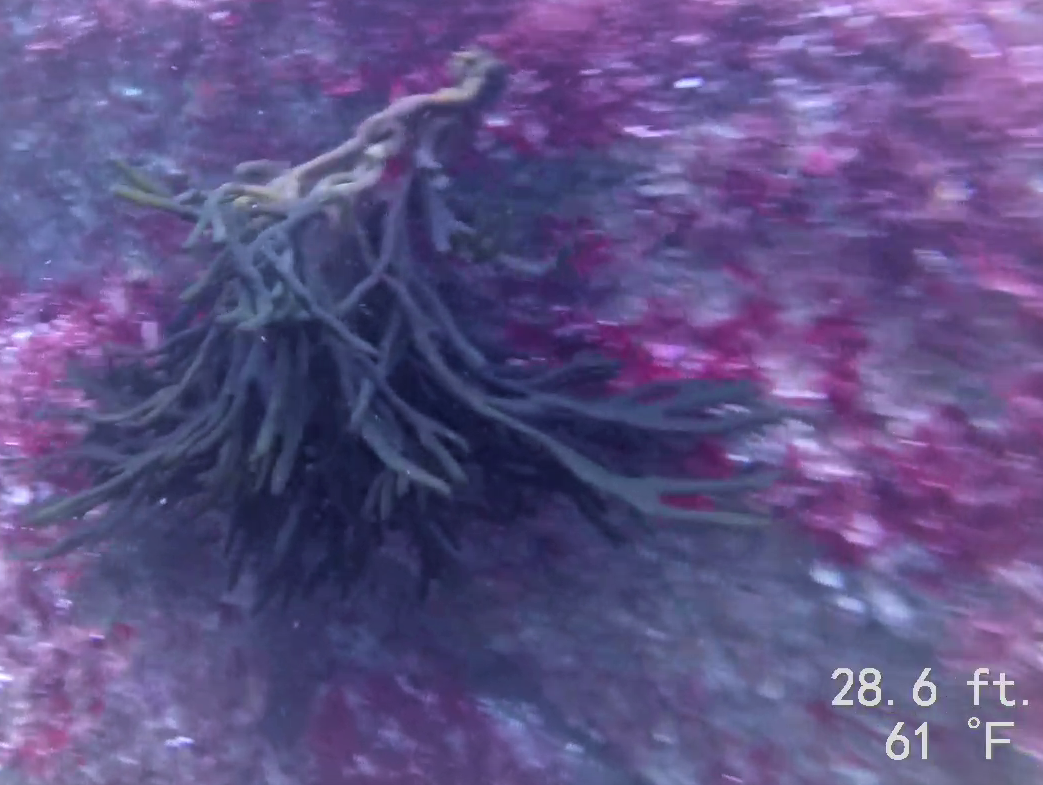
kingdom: Plantae
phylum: Chlorophyta
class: Ulvophyceae
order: Bryopsidales
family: Codiaceae
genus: Codium
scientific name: Codium fragile
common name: Dead man's fingers
